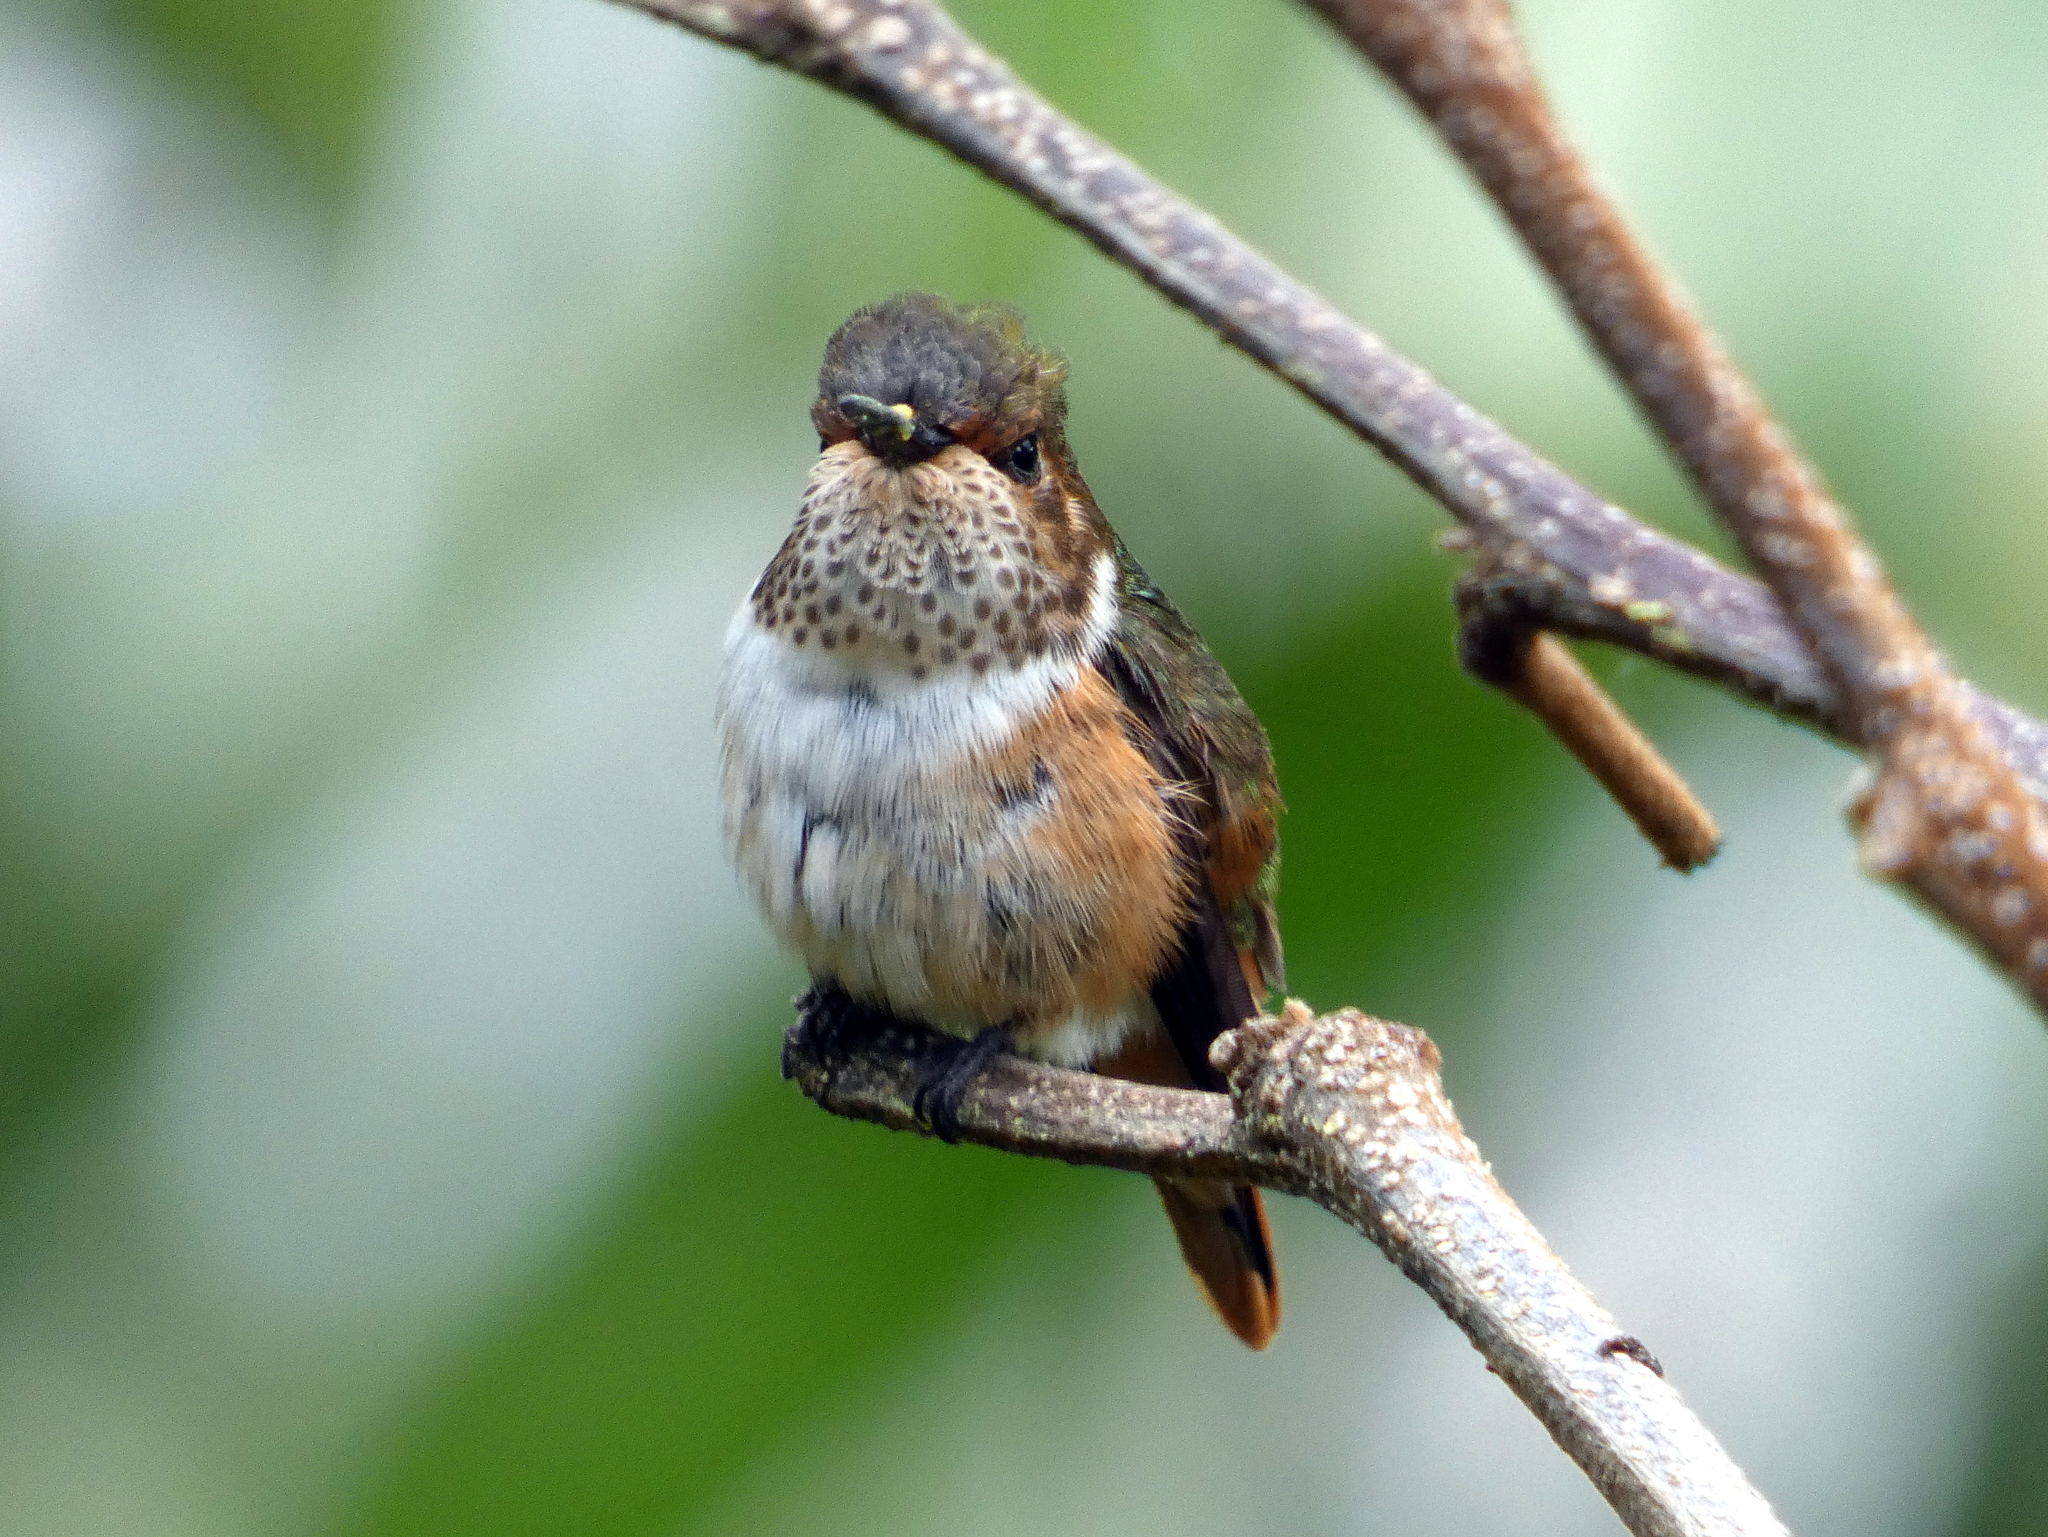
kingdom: Animalia
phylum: Chordata
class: Aves
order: Apodiformes
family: Trochilidae
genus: Selasphorus
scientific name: Selasphorus scintilla
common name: Scintillant hummingbird
